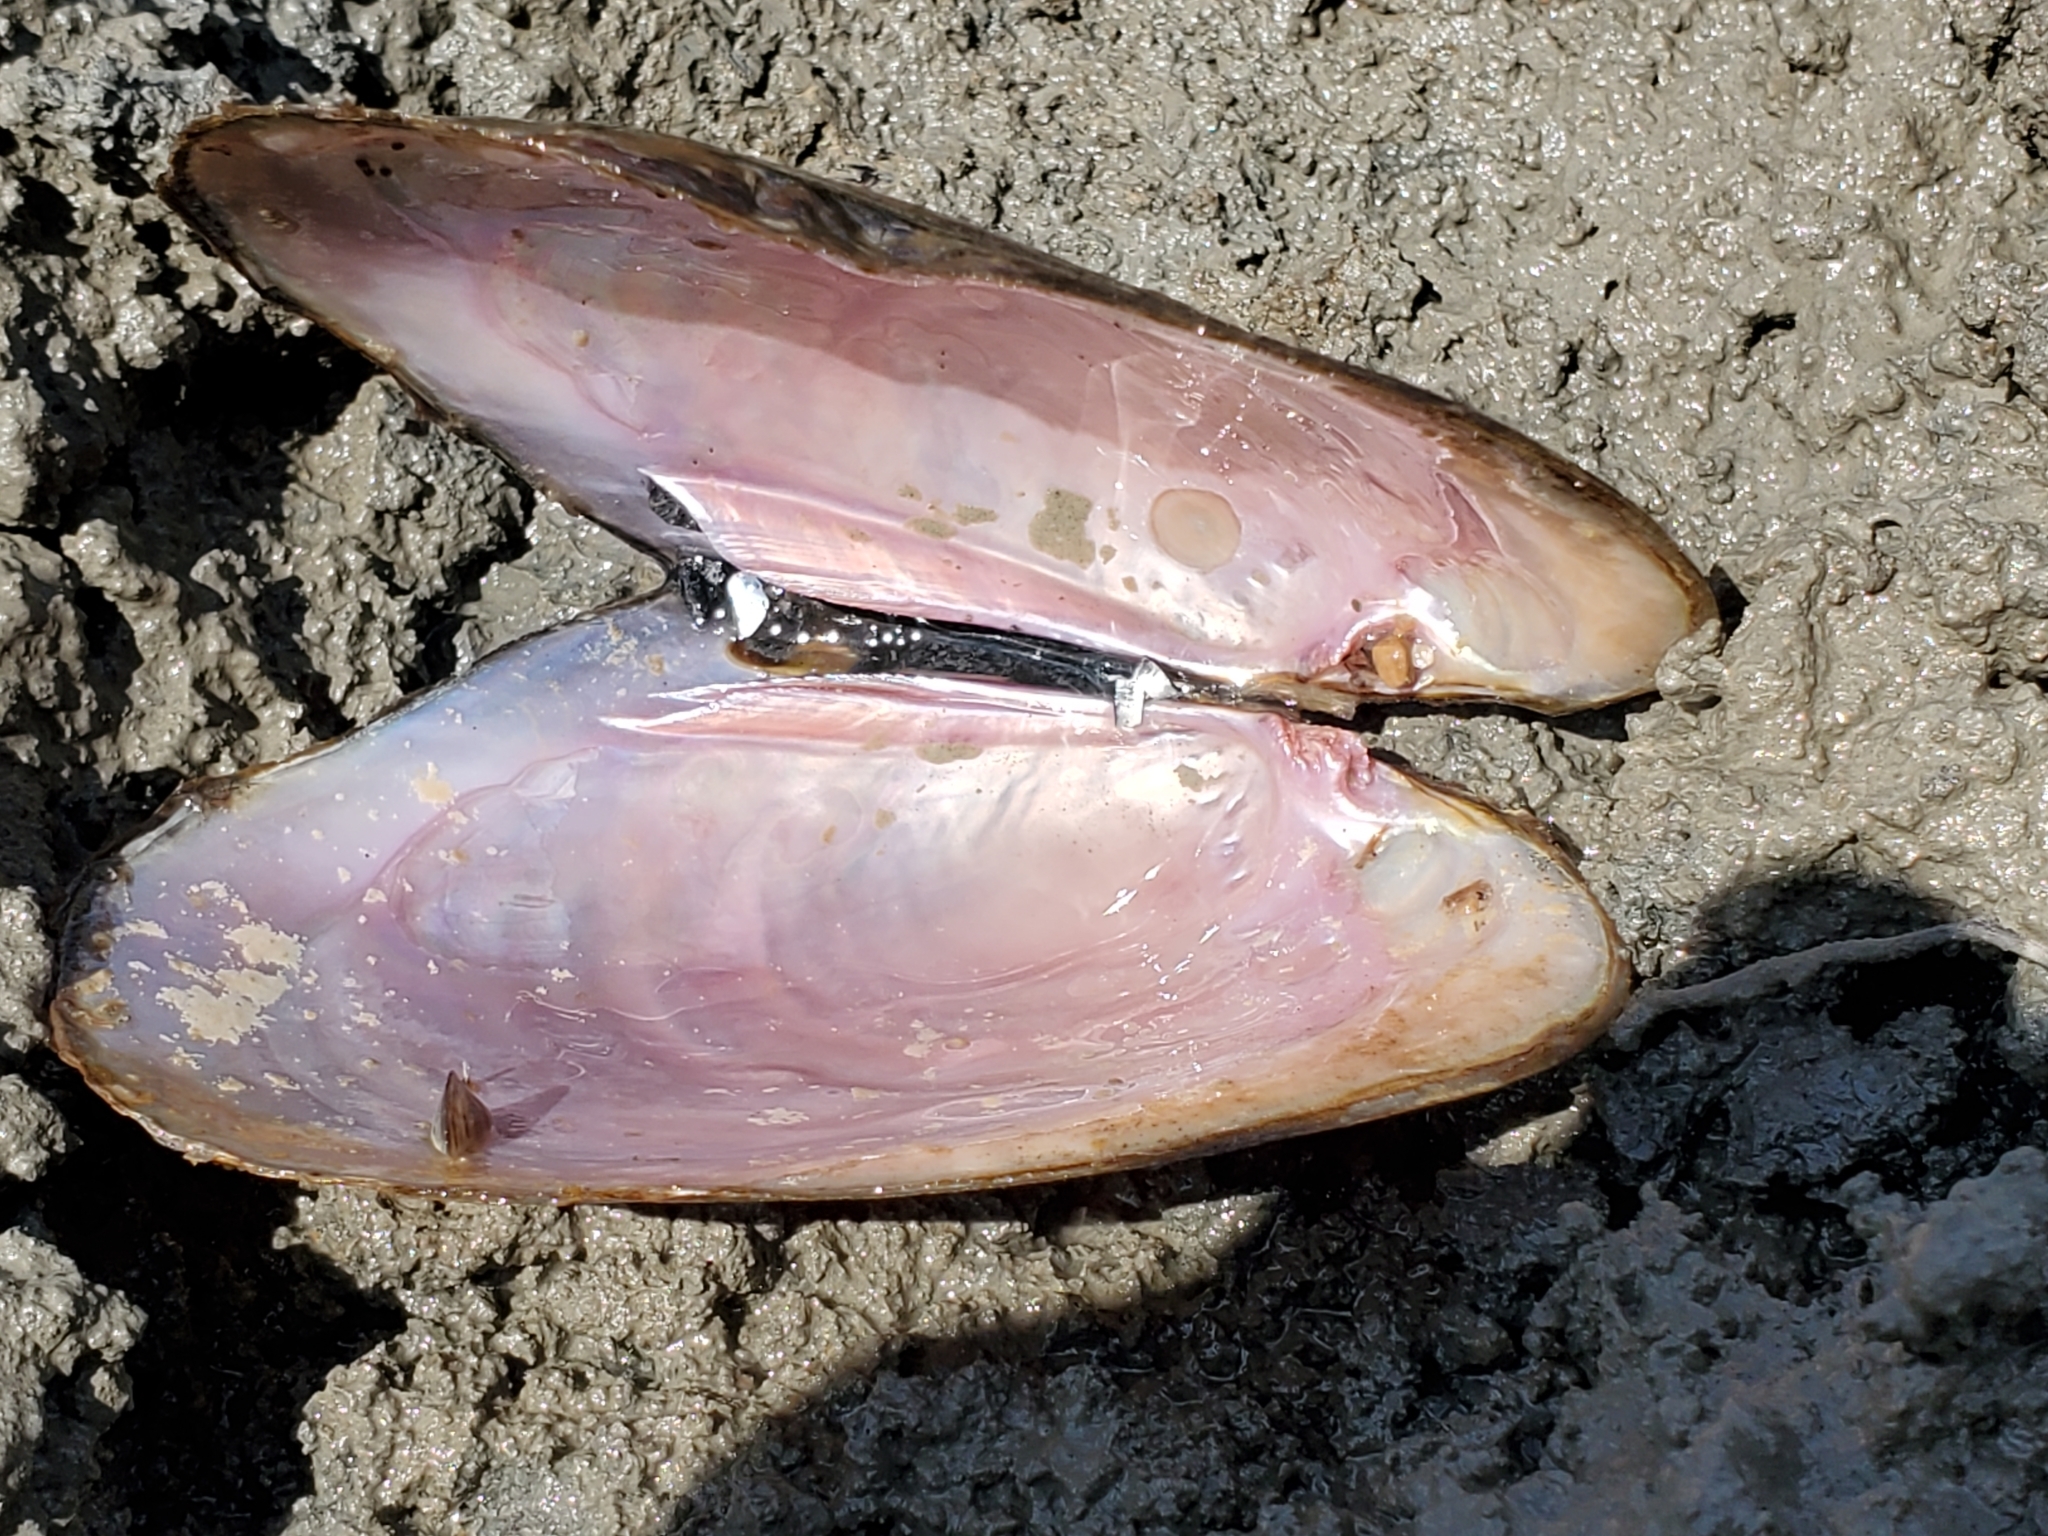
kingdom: Animalia
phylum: Mollusca
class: Bivalvia
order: Unionida
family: Unionidae
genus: Potamilus
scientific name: Potamilus alatus
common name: Pink heelsplitter
